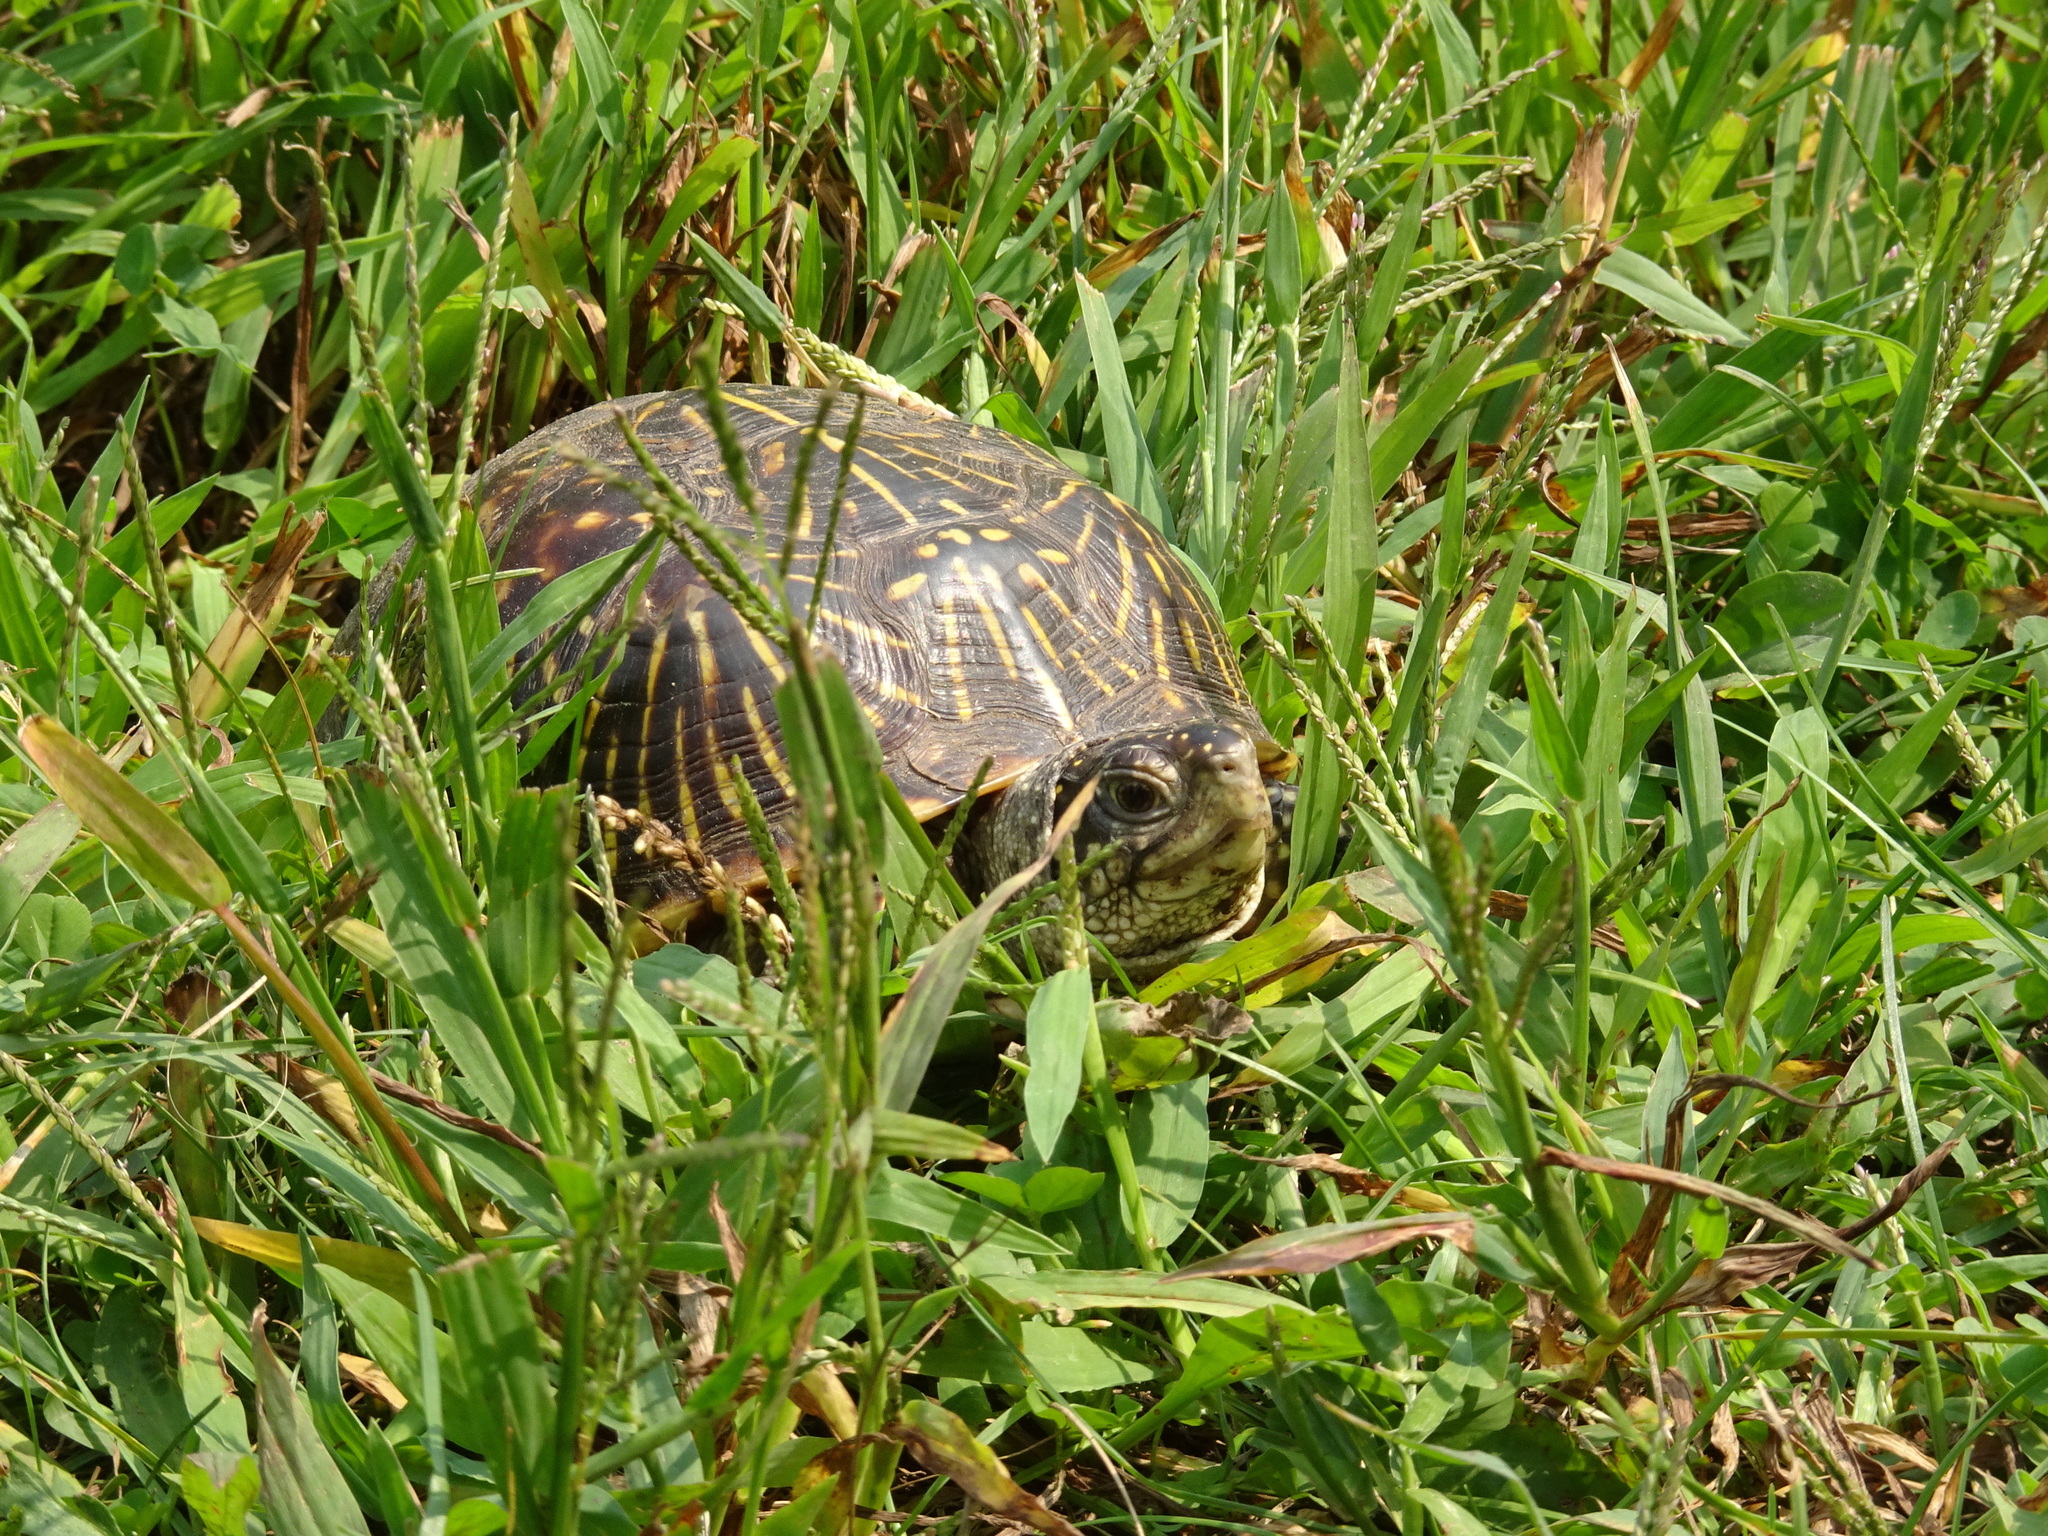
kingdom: Animalia
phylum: Chordata
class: Testudines
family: Emydidae
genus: Terrapene
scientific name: Terrapene ornata
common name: Western box turtle
